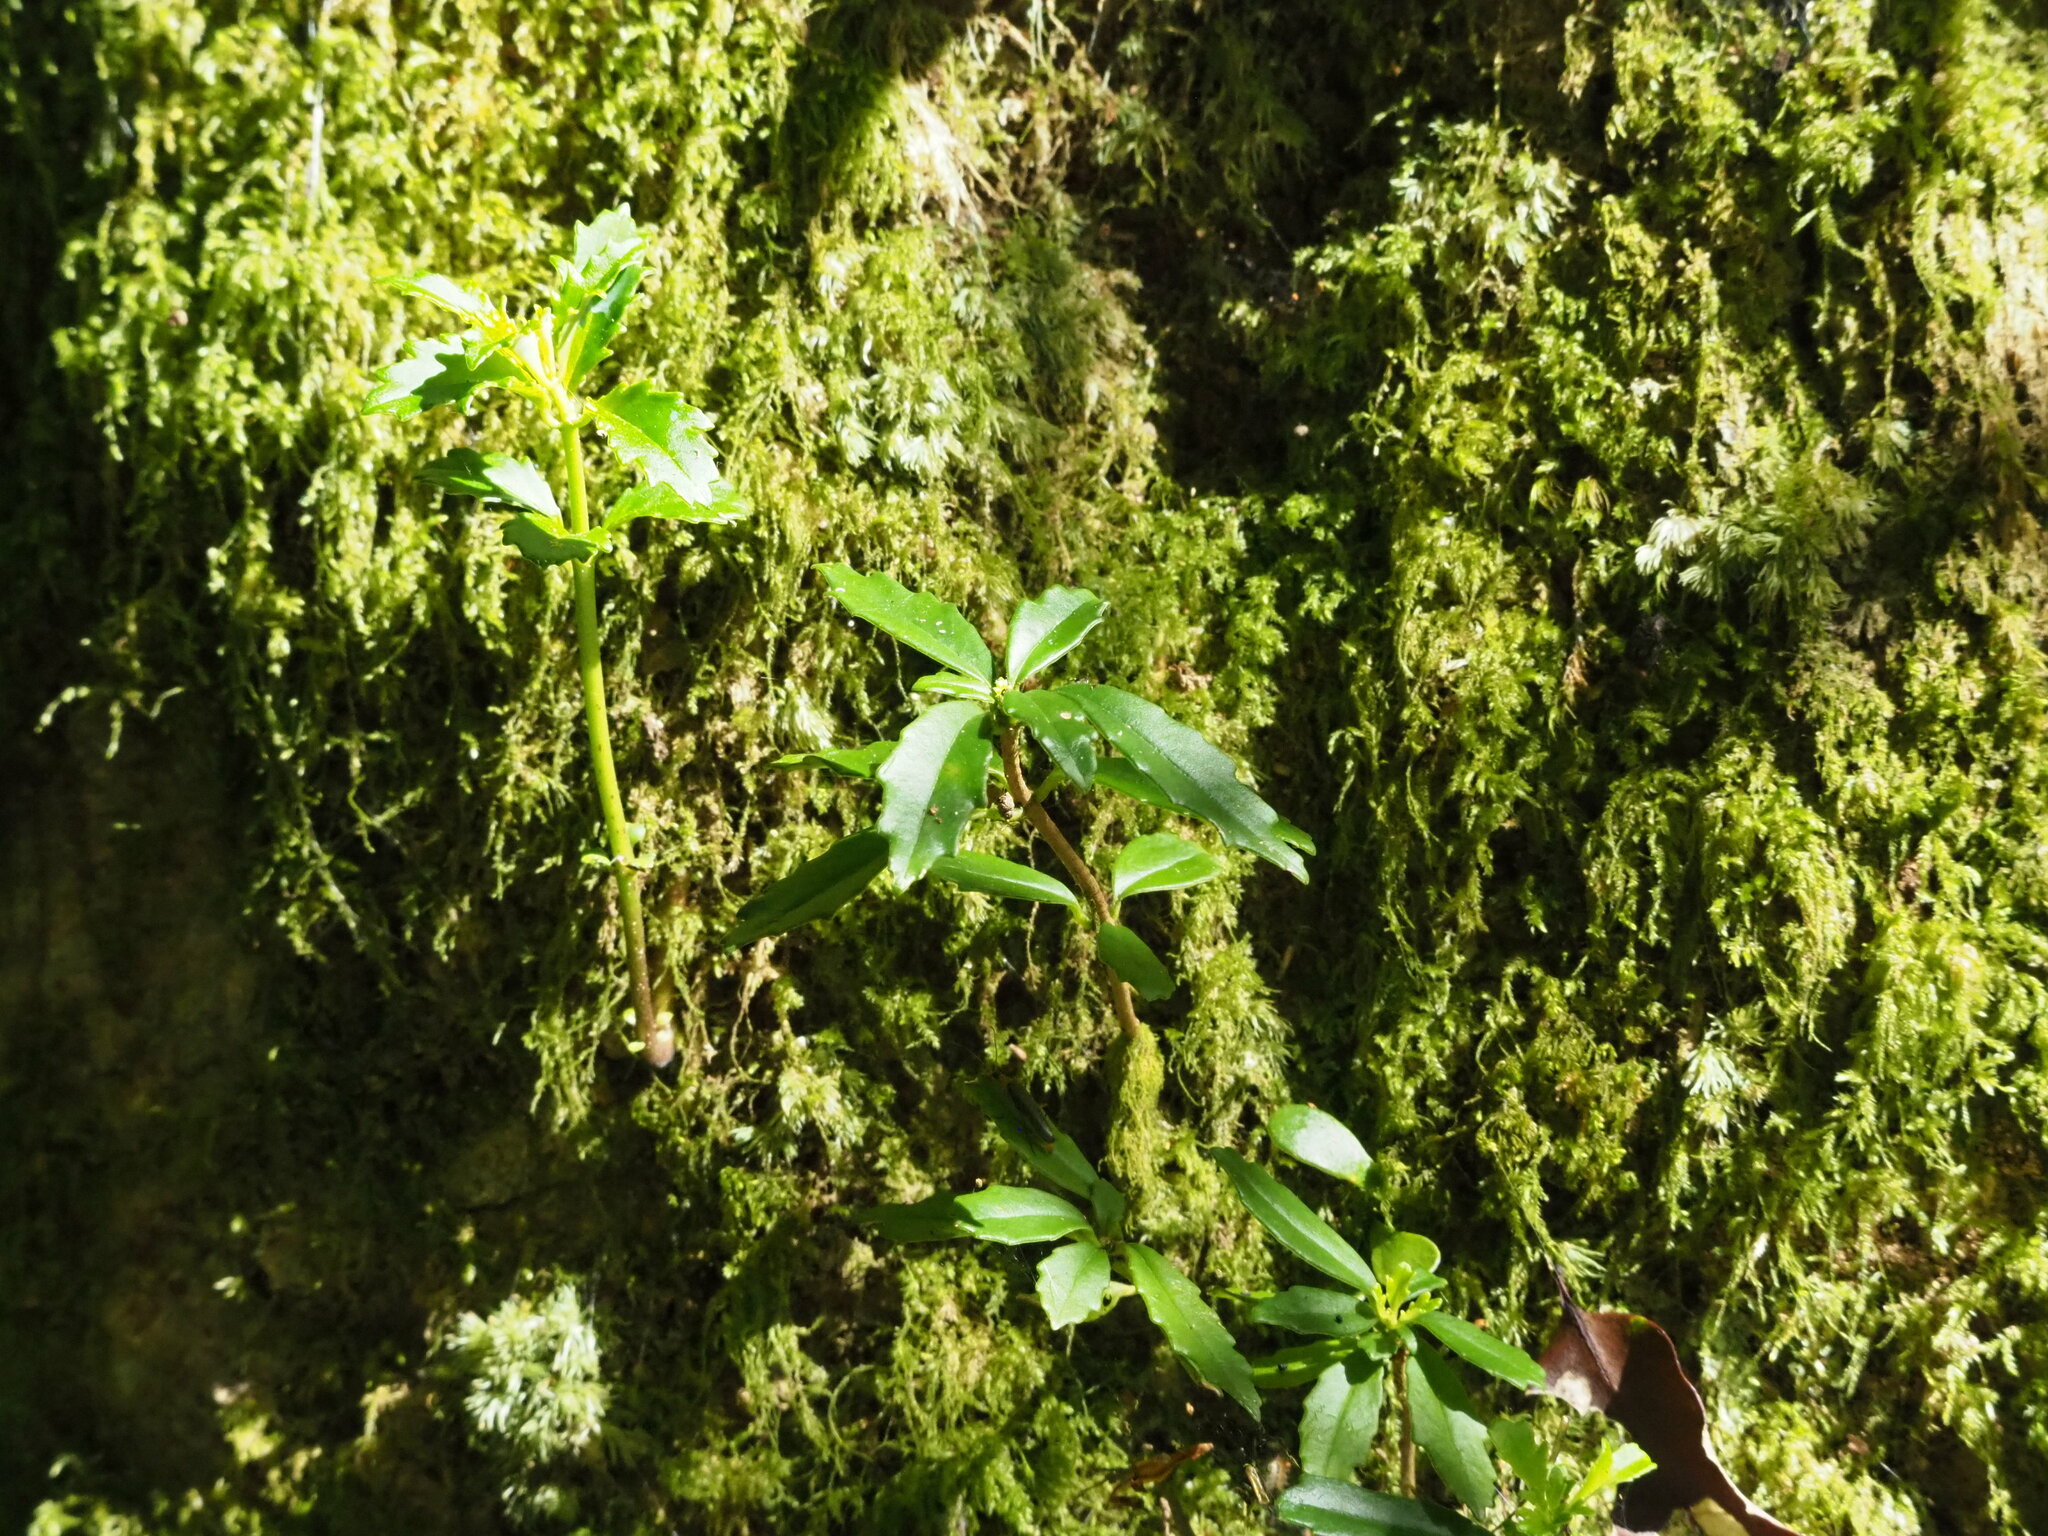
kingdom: Plantae
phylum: Tracheophyta
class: Magnoliopsida
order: Lamiales
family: Gesneriaceae
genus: Lysionotus
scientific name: Lysionotus pauciflorus
